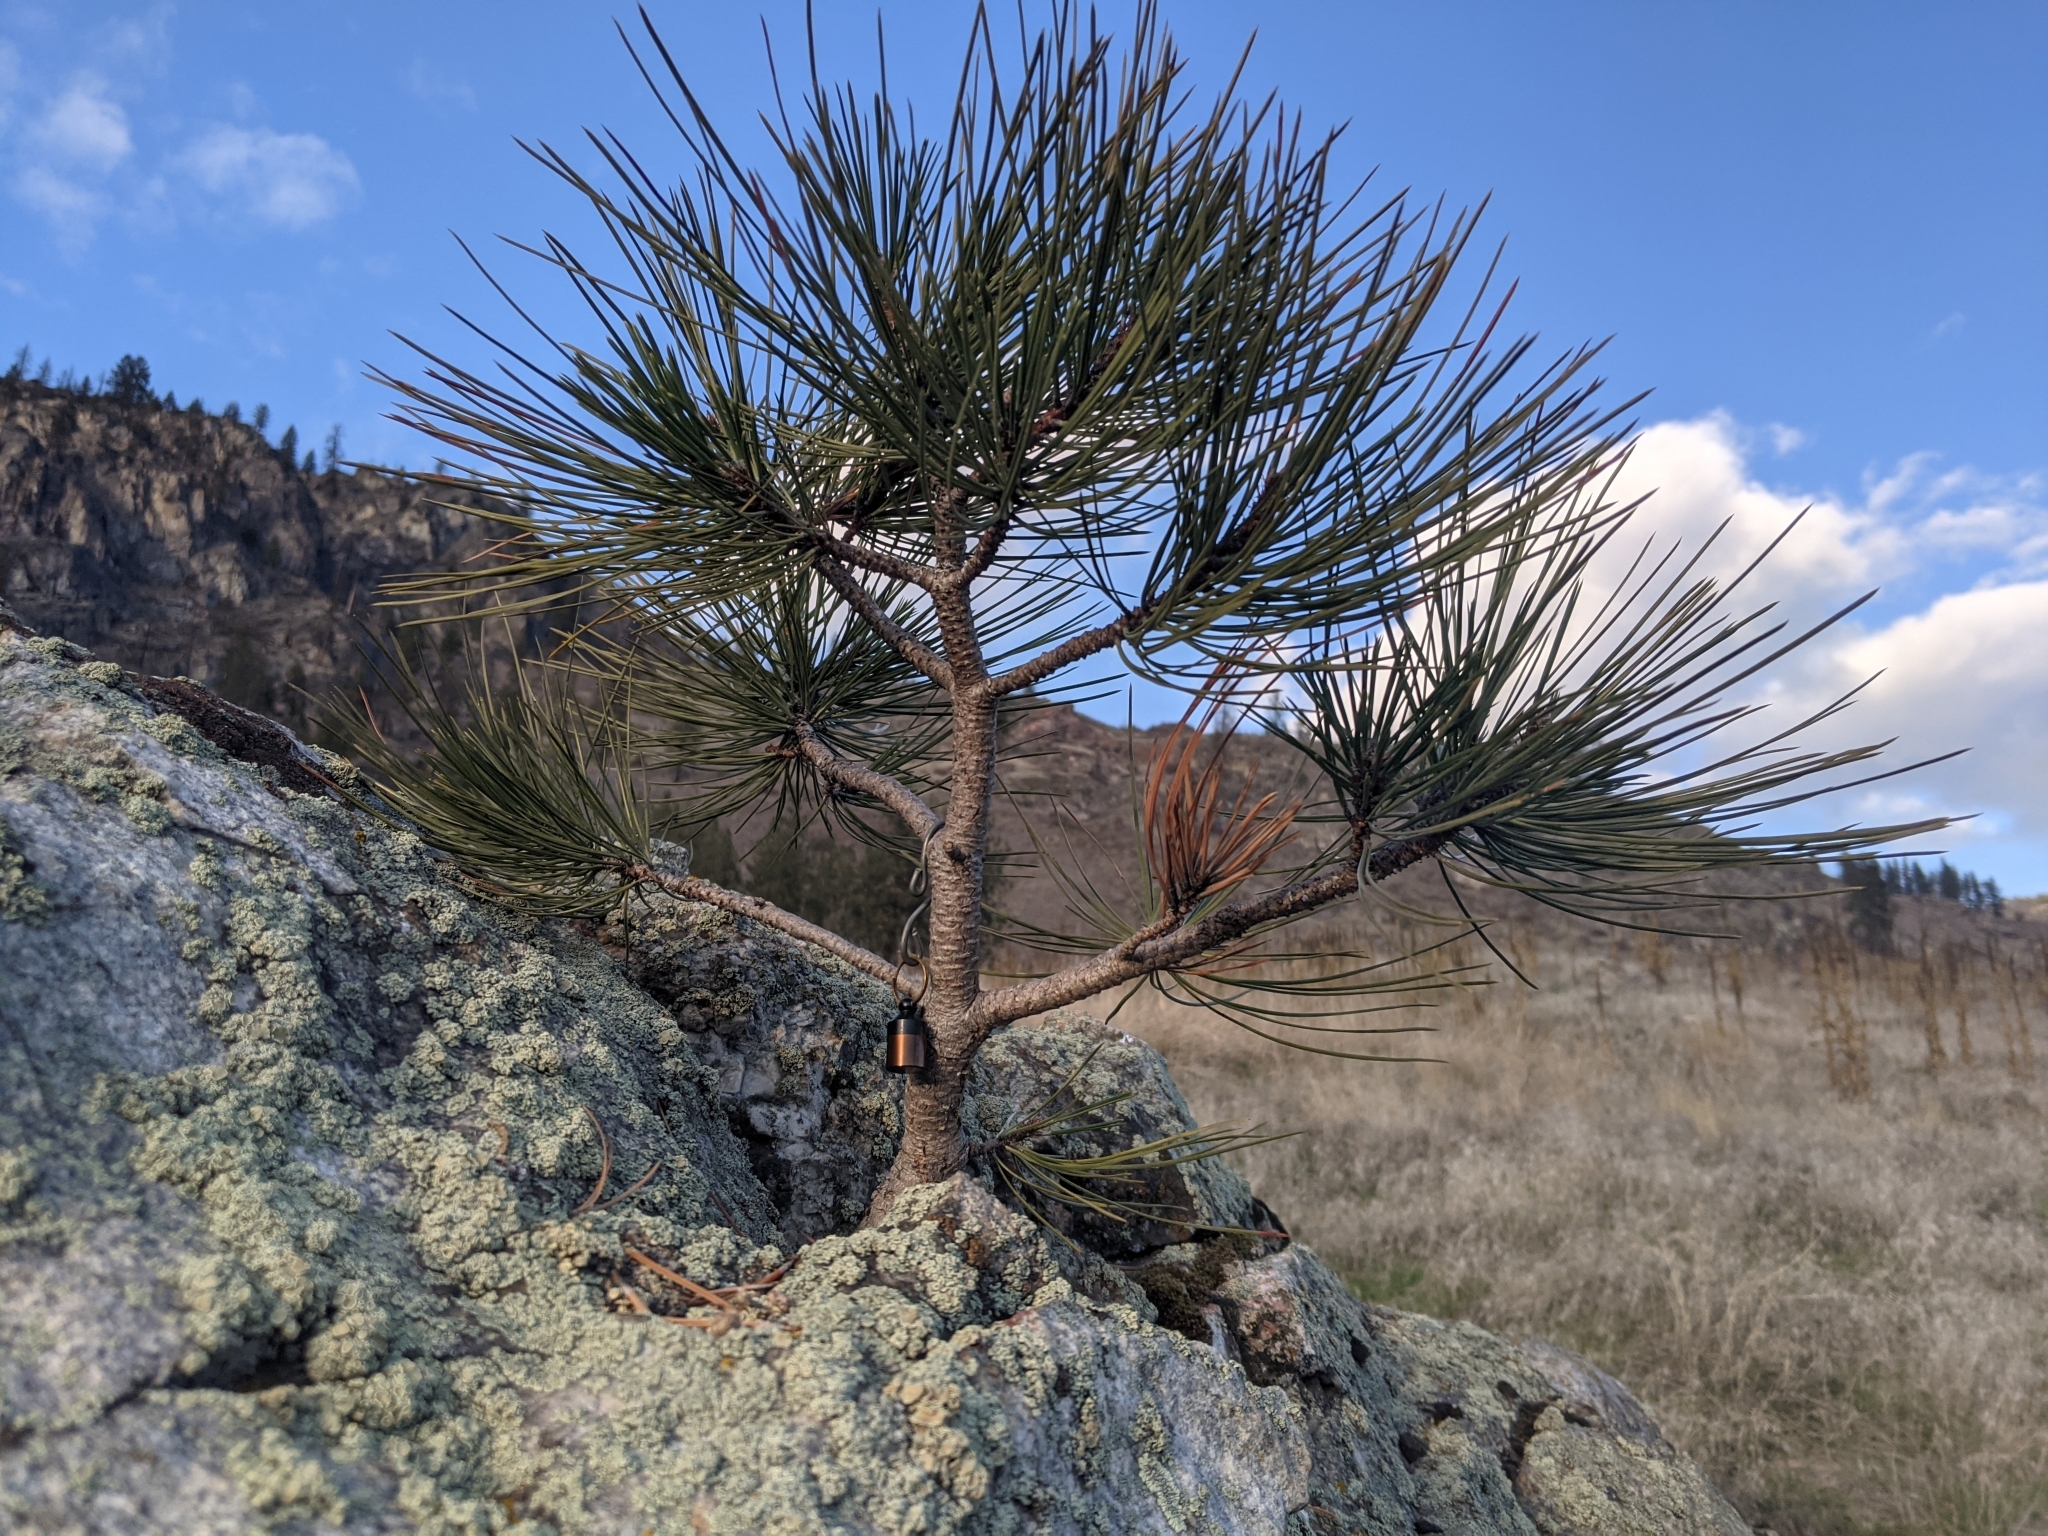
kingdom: Plantae
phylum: Tracheophyta
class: Pinopsida
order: Pinales
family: Pinaceae
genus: Pinus
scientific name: Pinus ponderosa
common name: Western yellow-pine
